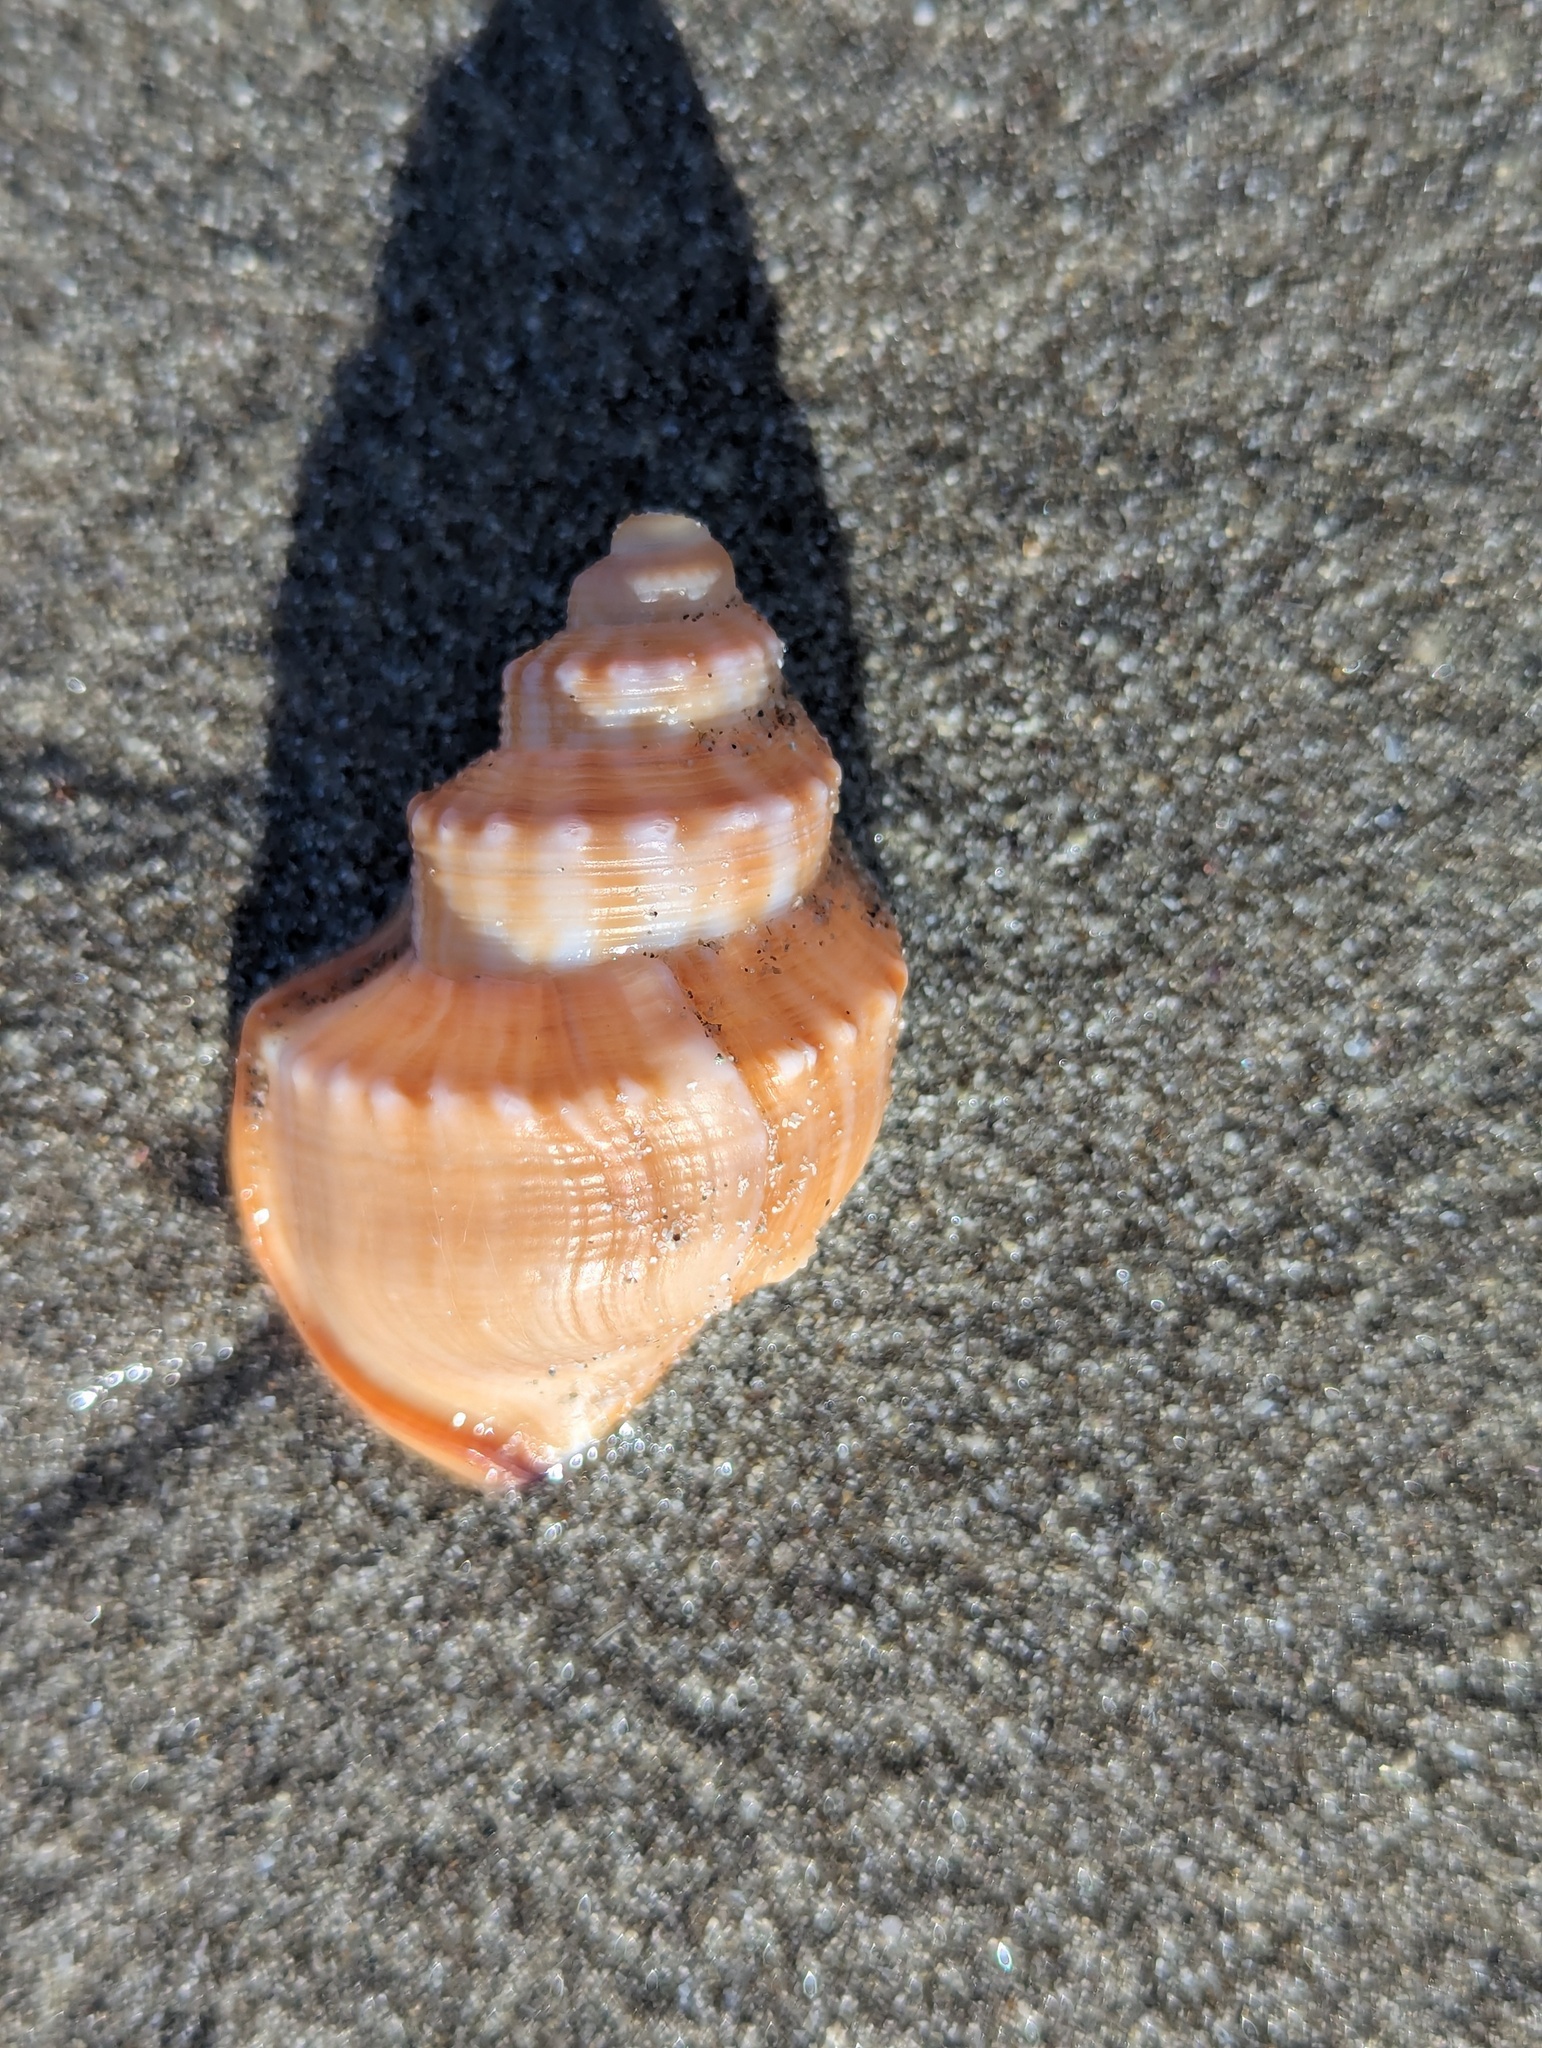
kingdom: Animalia
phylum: Mollusca
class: Gastropoda
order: Littorinimorpha
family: Struthiolariidae
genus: Struthiolaria
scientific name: Struthiolaria papulosa
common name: Large ostrich foot
